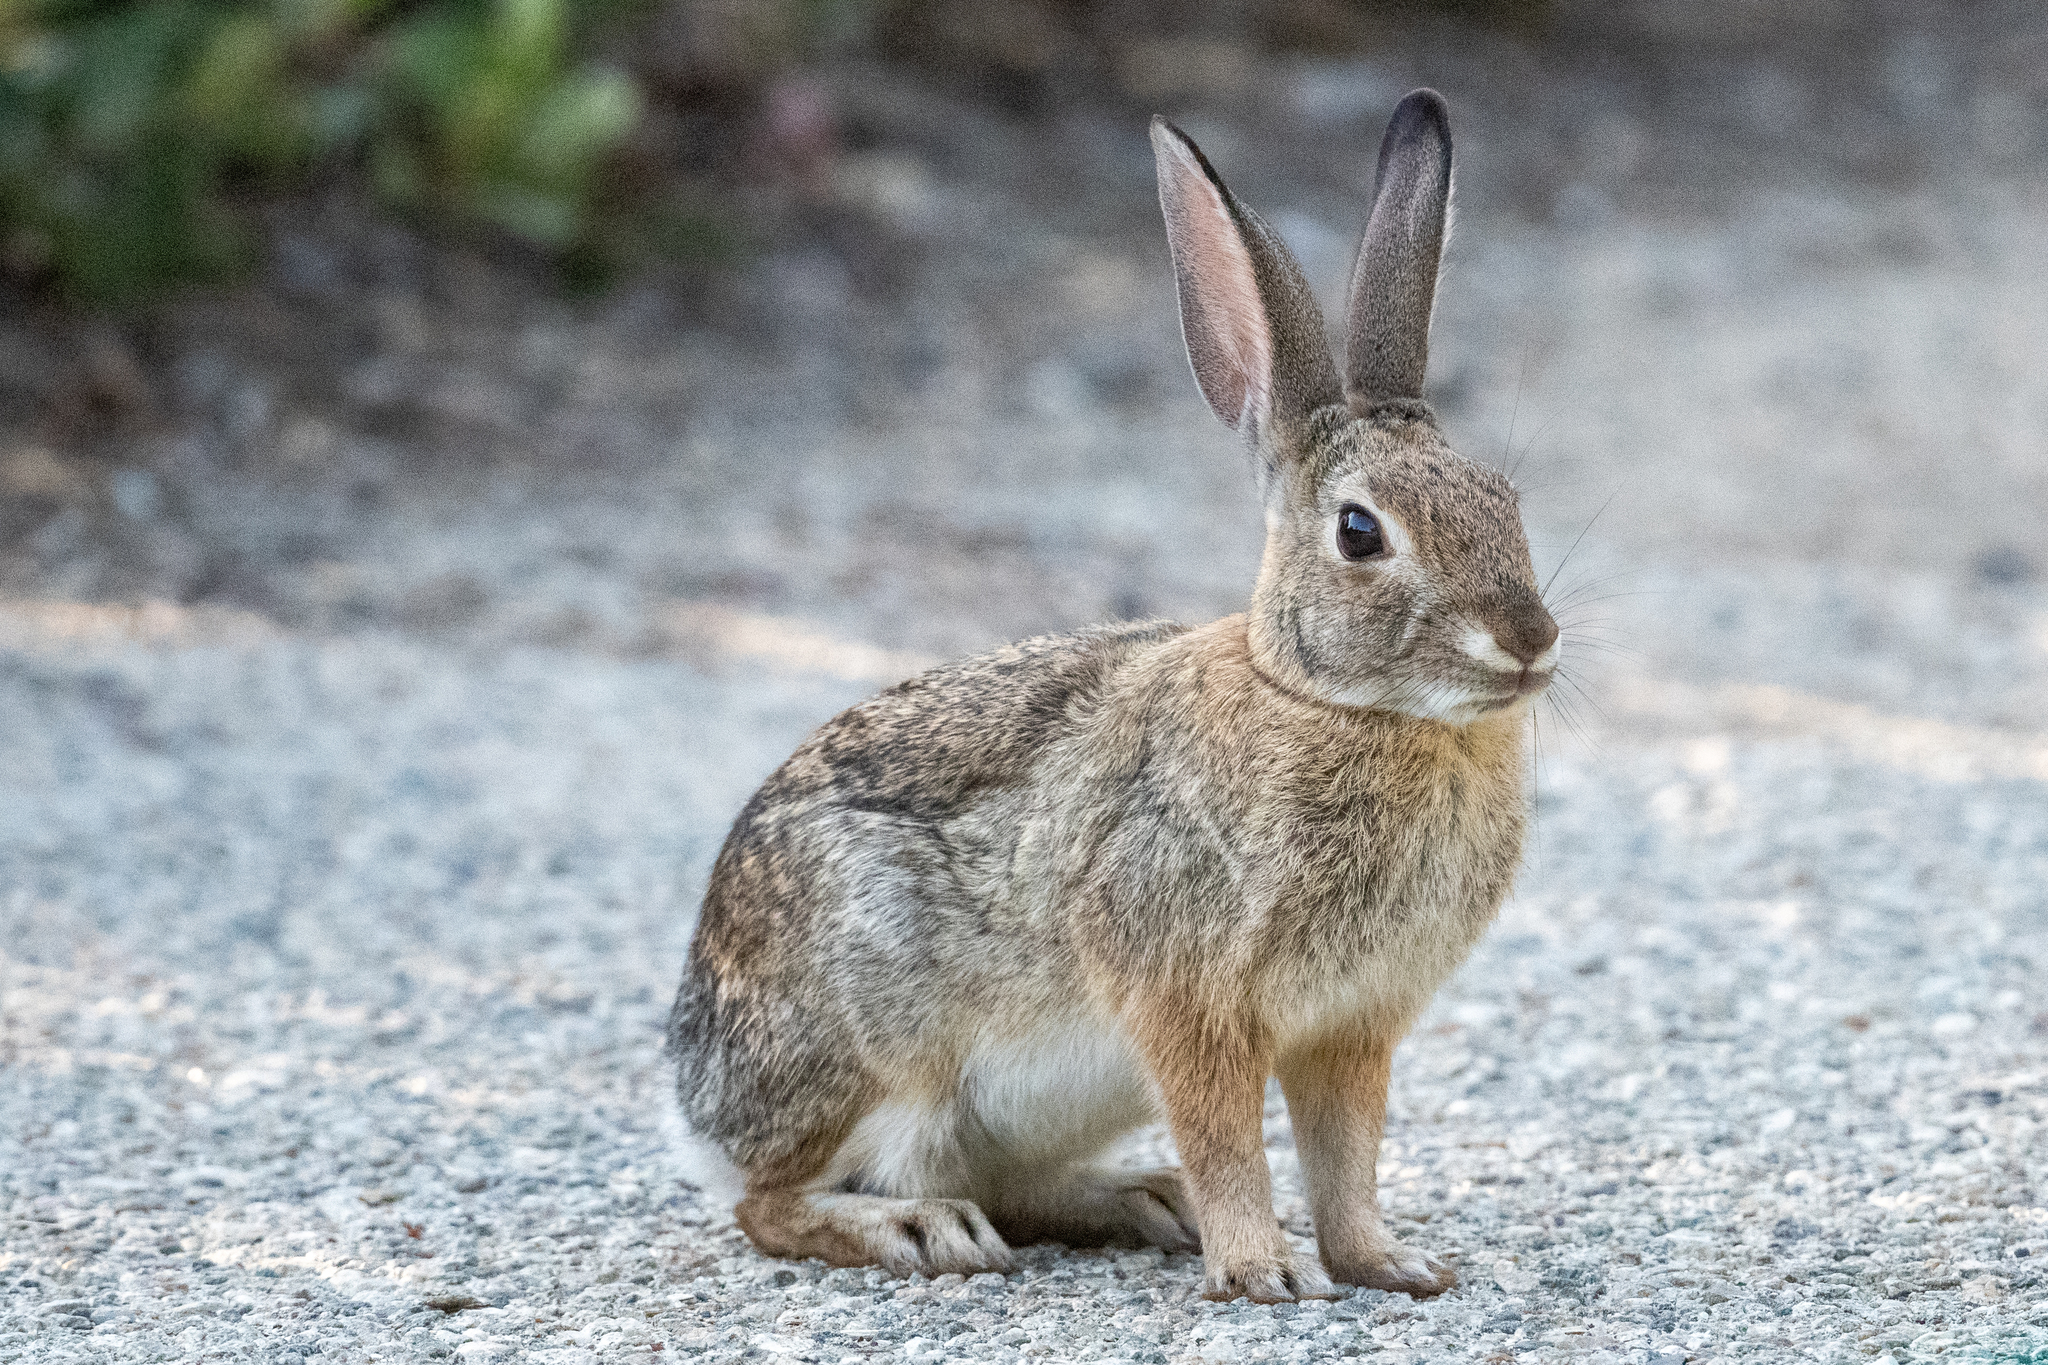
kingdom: Animalia
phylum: Chordata
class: Mammalia
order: Lagomorpha
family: Leporidae
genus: Sylvilagus
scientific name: Sylvilagus audubonii
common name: Desert cottontail
